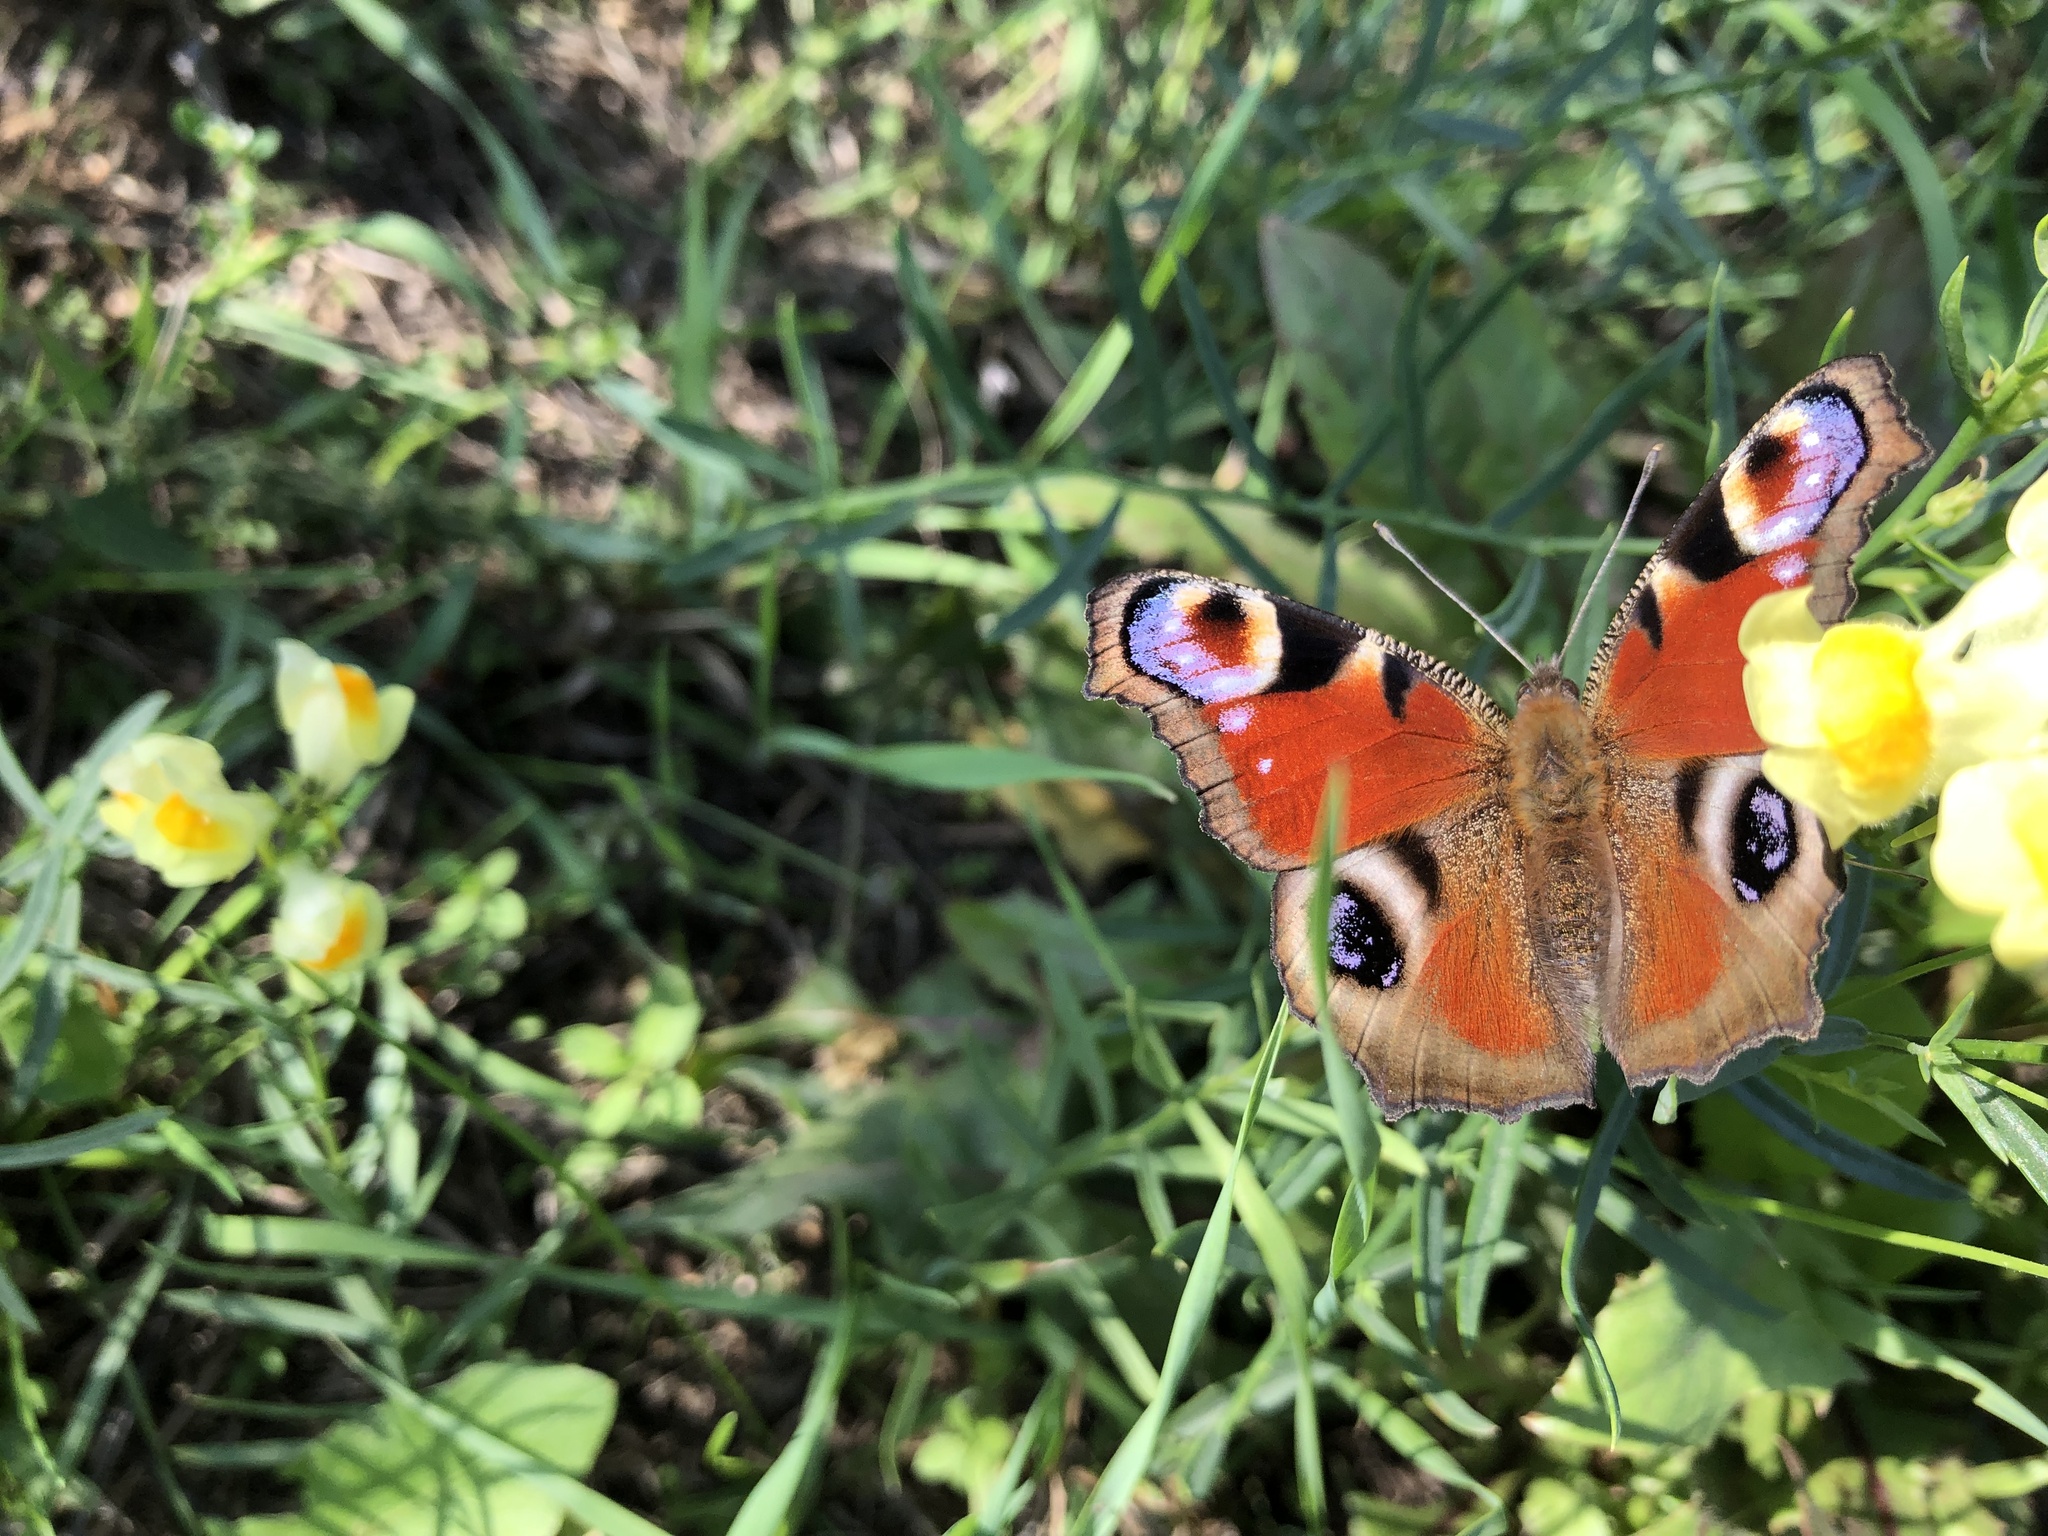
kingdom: Animalia
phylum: Arthropoda
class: Insecta
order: Lepidoptera
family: Nymphalidae
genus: Aglais
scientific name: Aglais io
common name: Peacock
